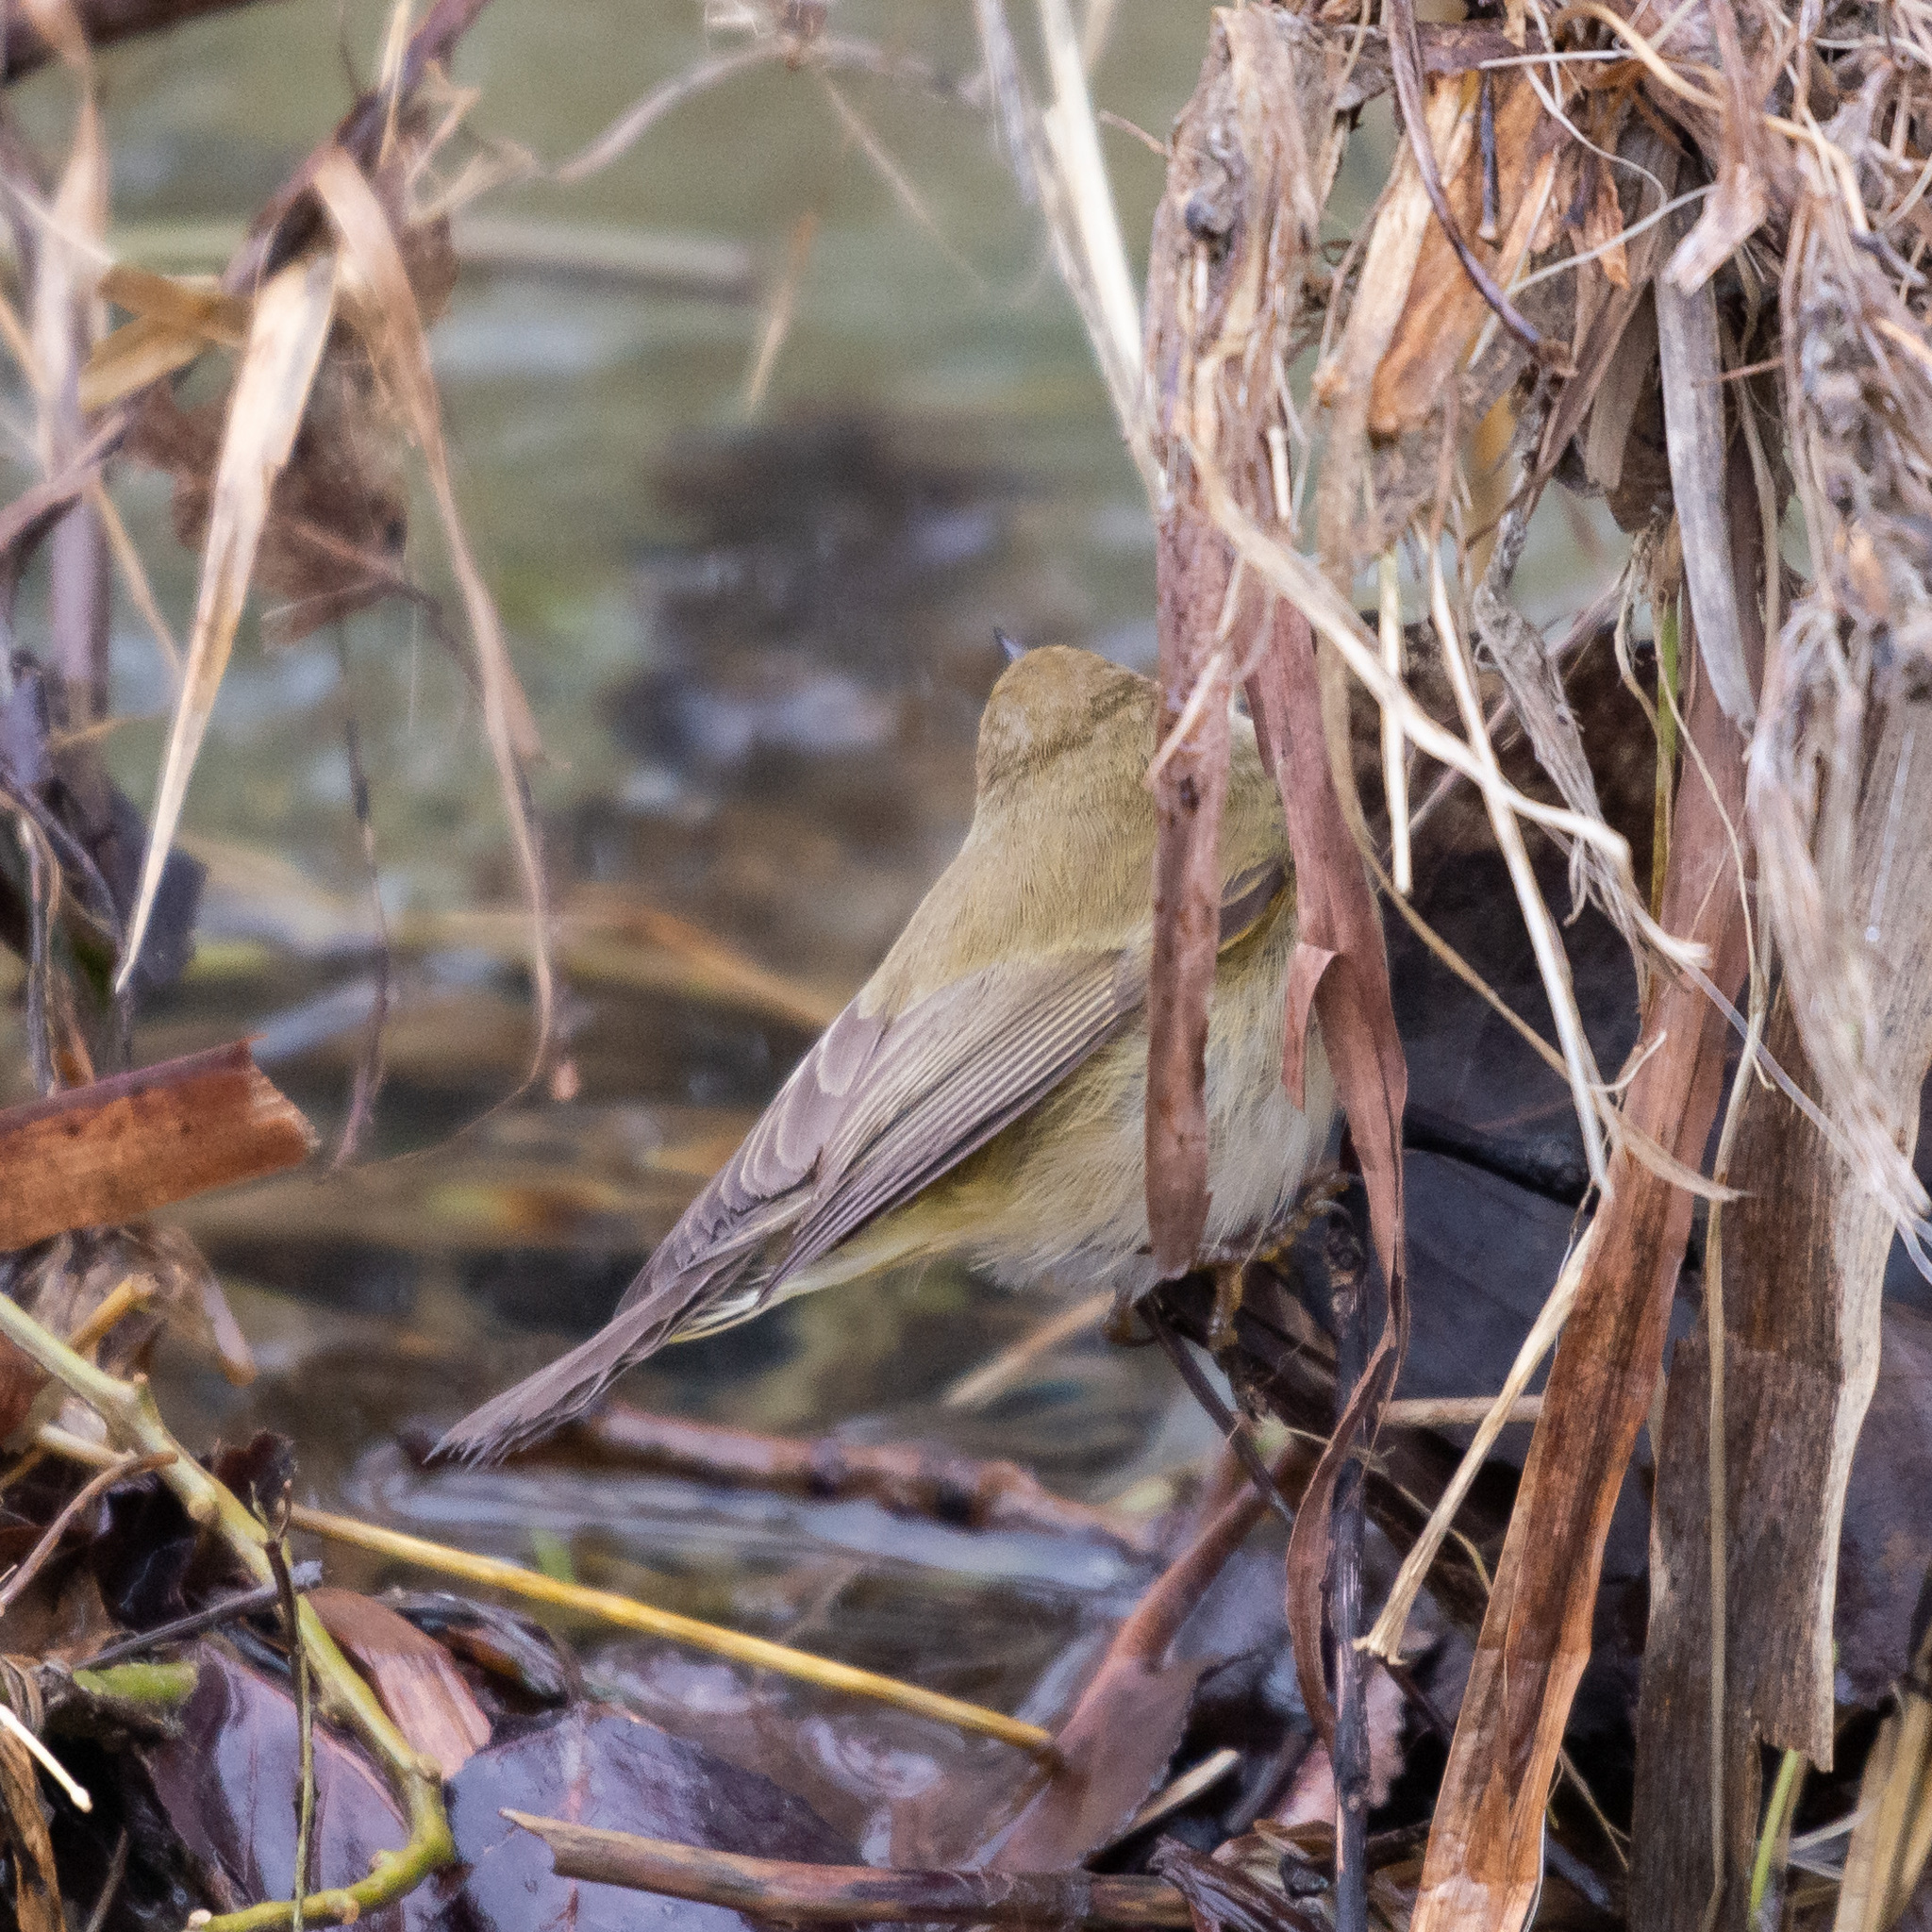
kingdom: Animalia
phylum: Chordata
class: Aves
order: Passeriformes
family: Phylloscopidae
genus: Phylloscopus
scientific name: Phylloscopus collybita
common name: Common chiffchaff
